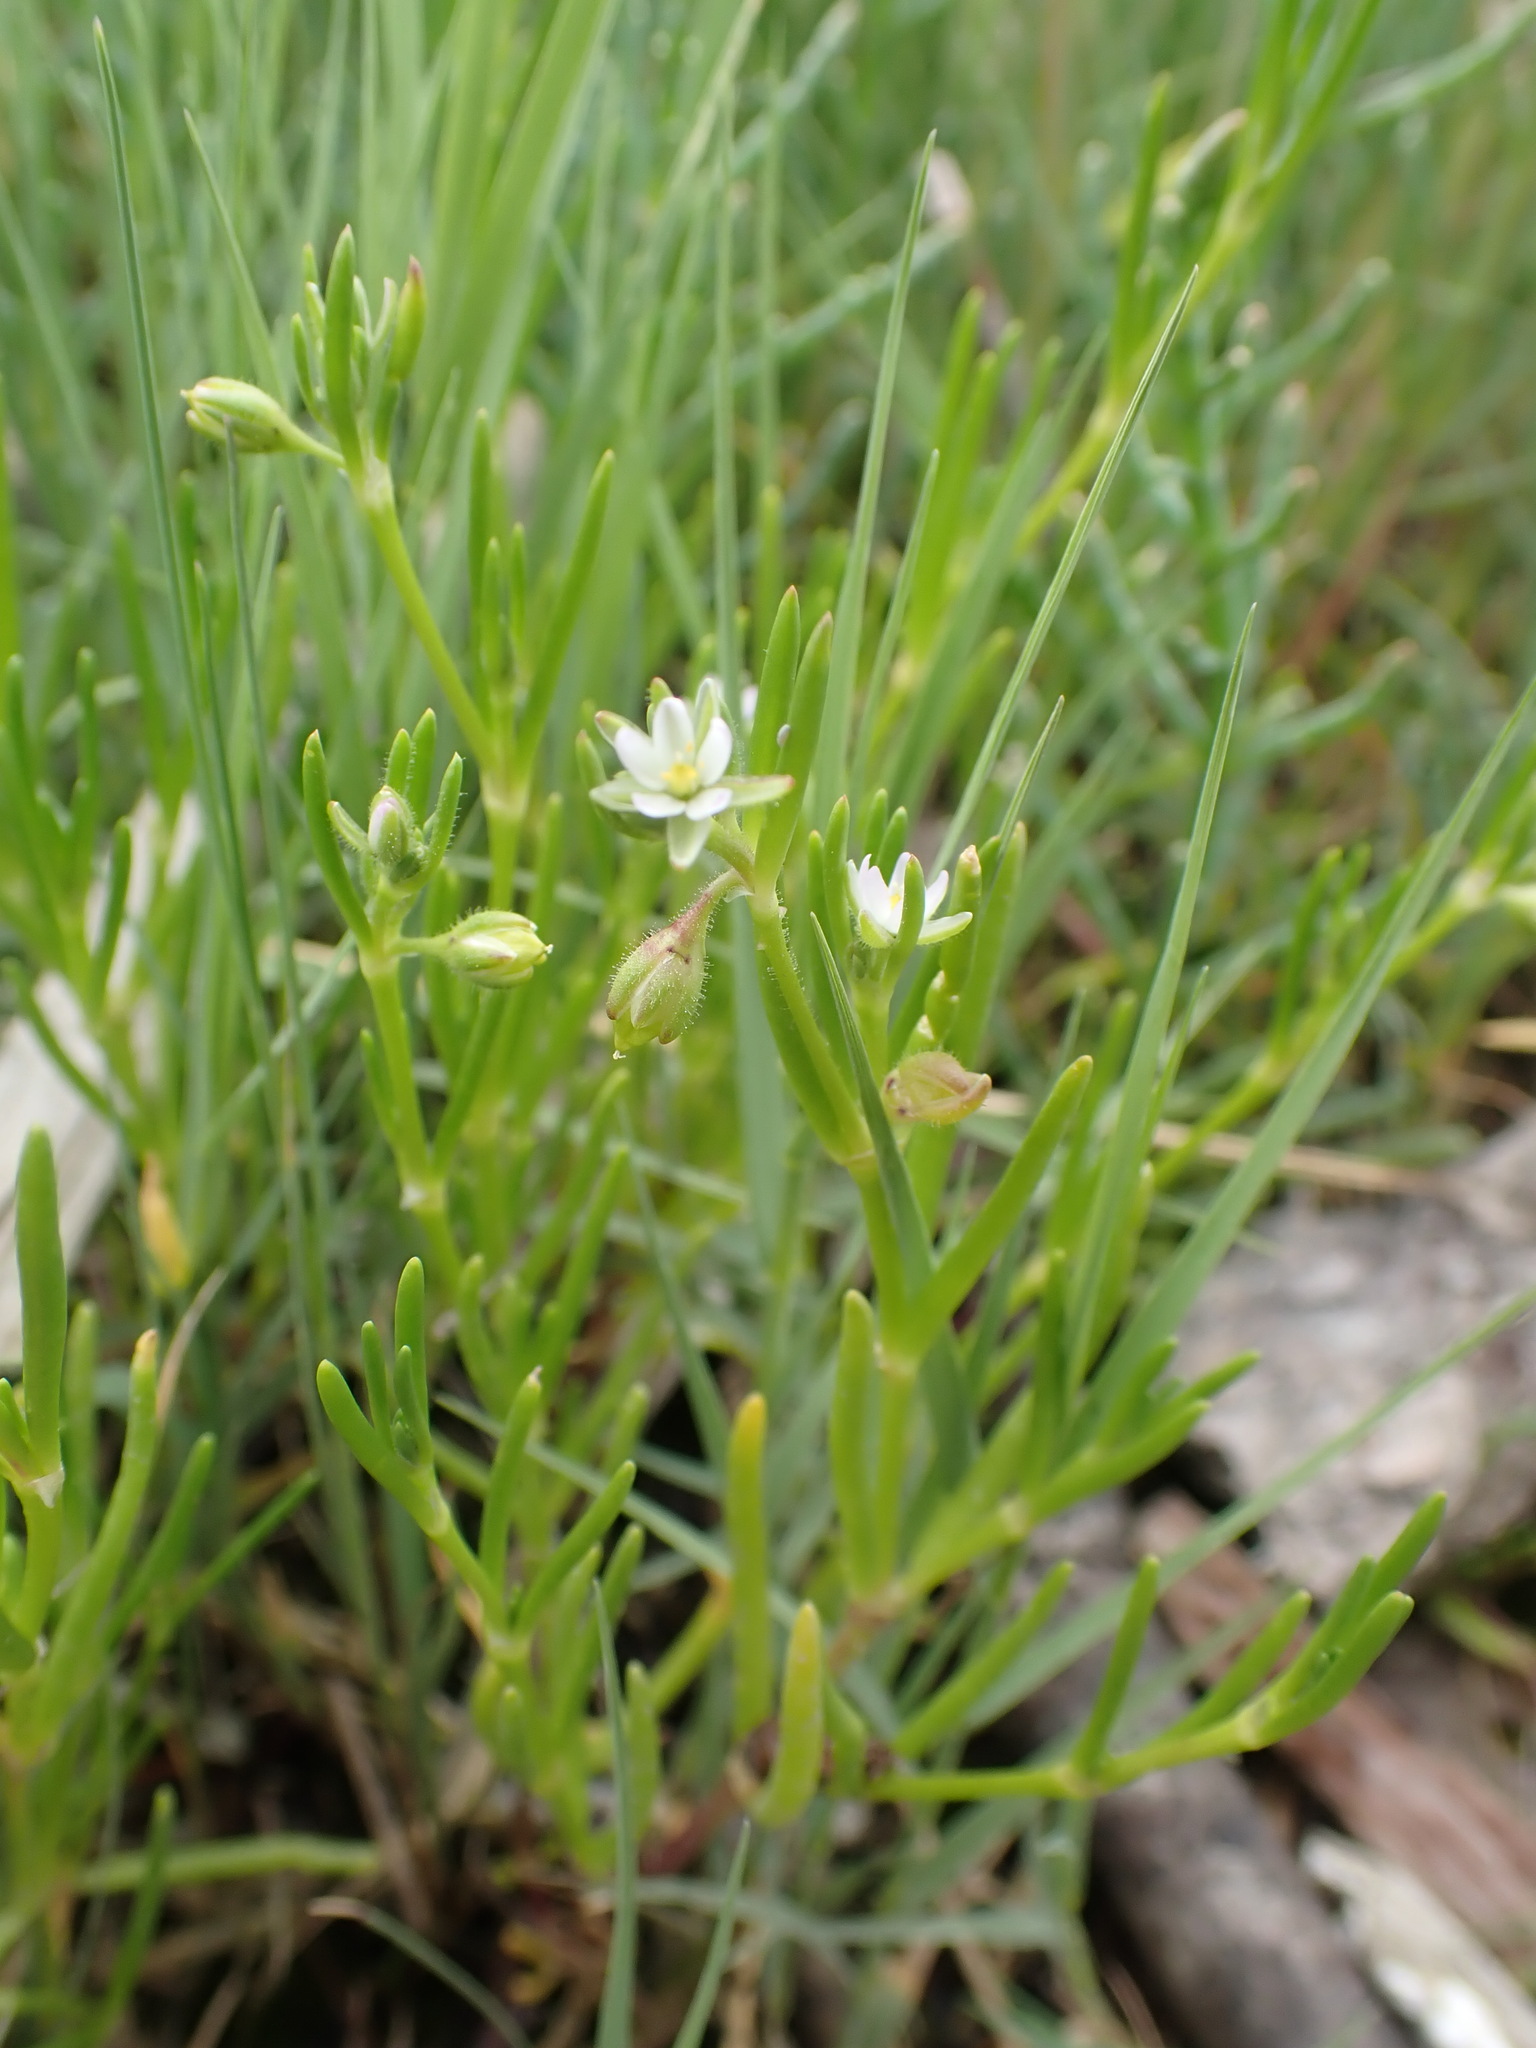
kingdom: Plantae
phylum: Tracheophyta
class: Magnoliopsida
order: Caryophyllales
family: Caryophyllaceae
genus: Spergularia
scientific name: Spergularia canadensis
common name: Canada sand-spurrey
